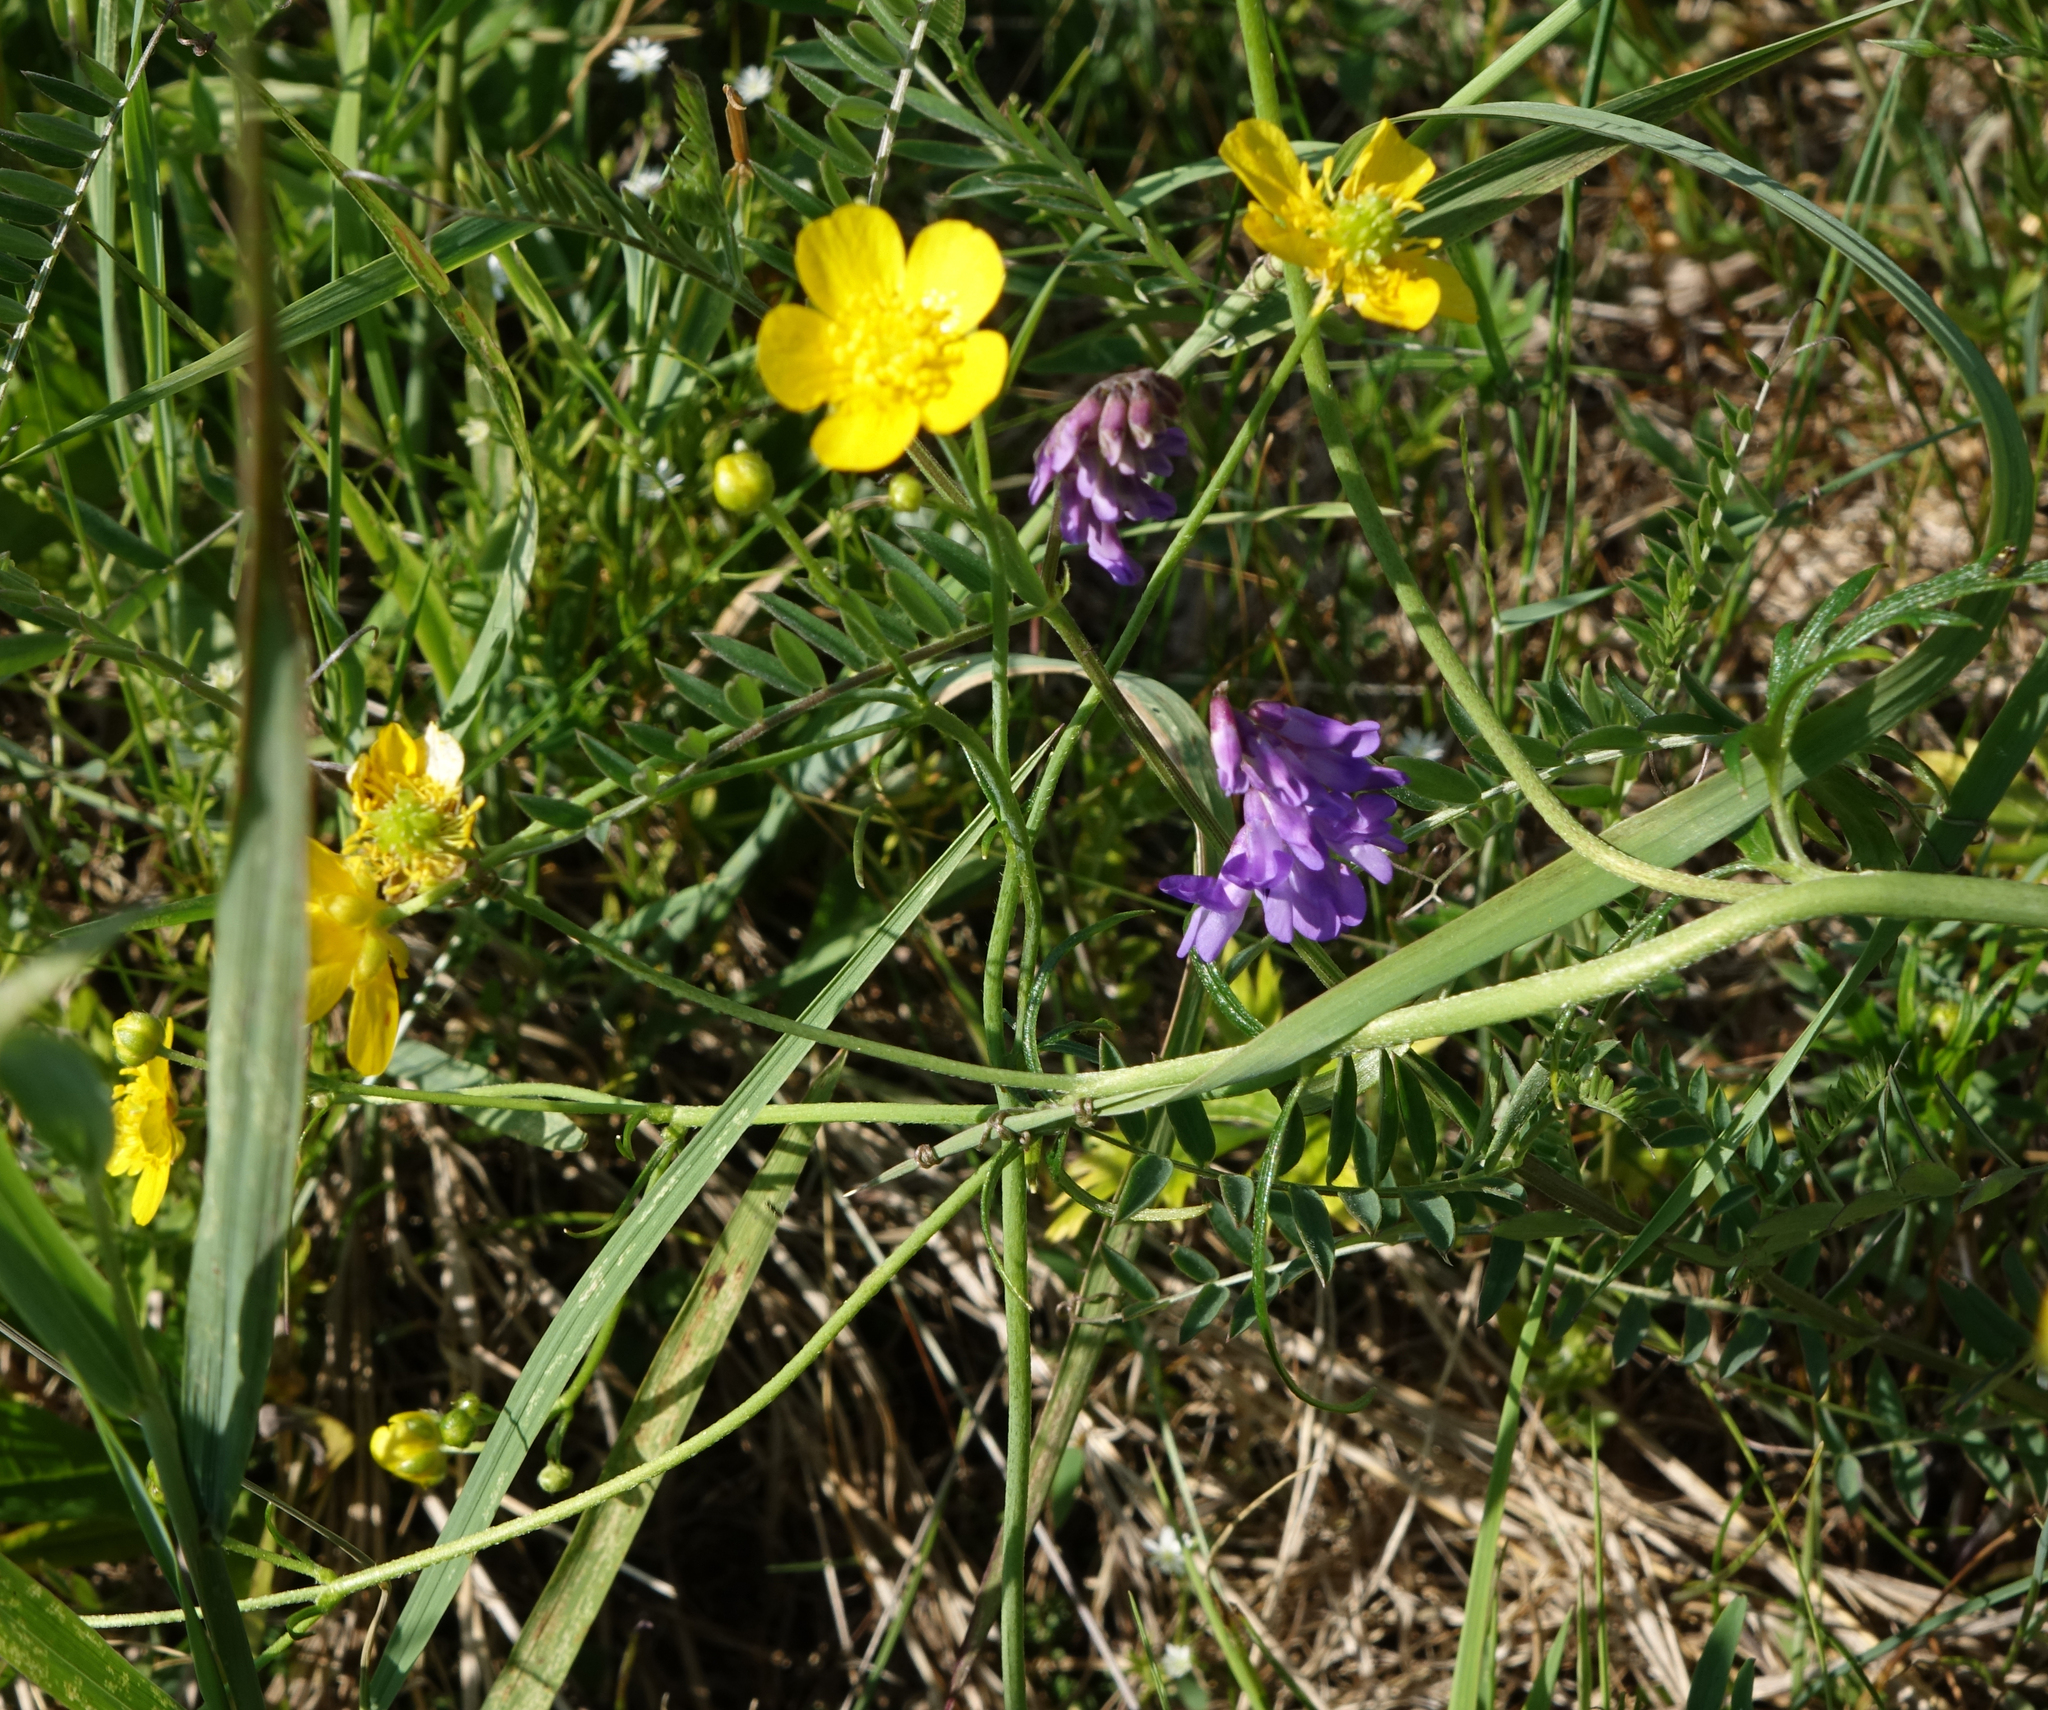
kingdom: Plantae
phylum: Tracheophyta
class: Magnoliopsida
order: Fabales
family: Fabaceae
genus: Vicia
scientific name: Vicia cracca
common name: Bird vetch
